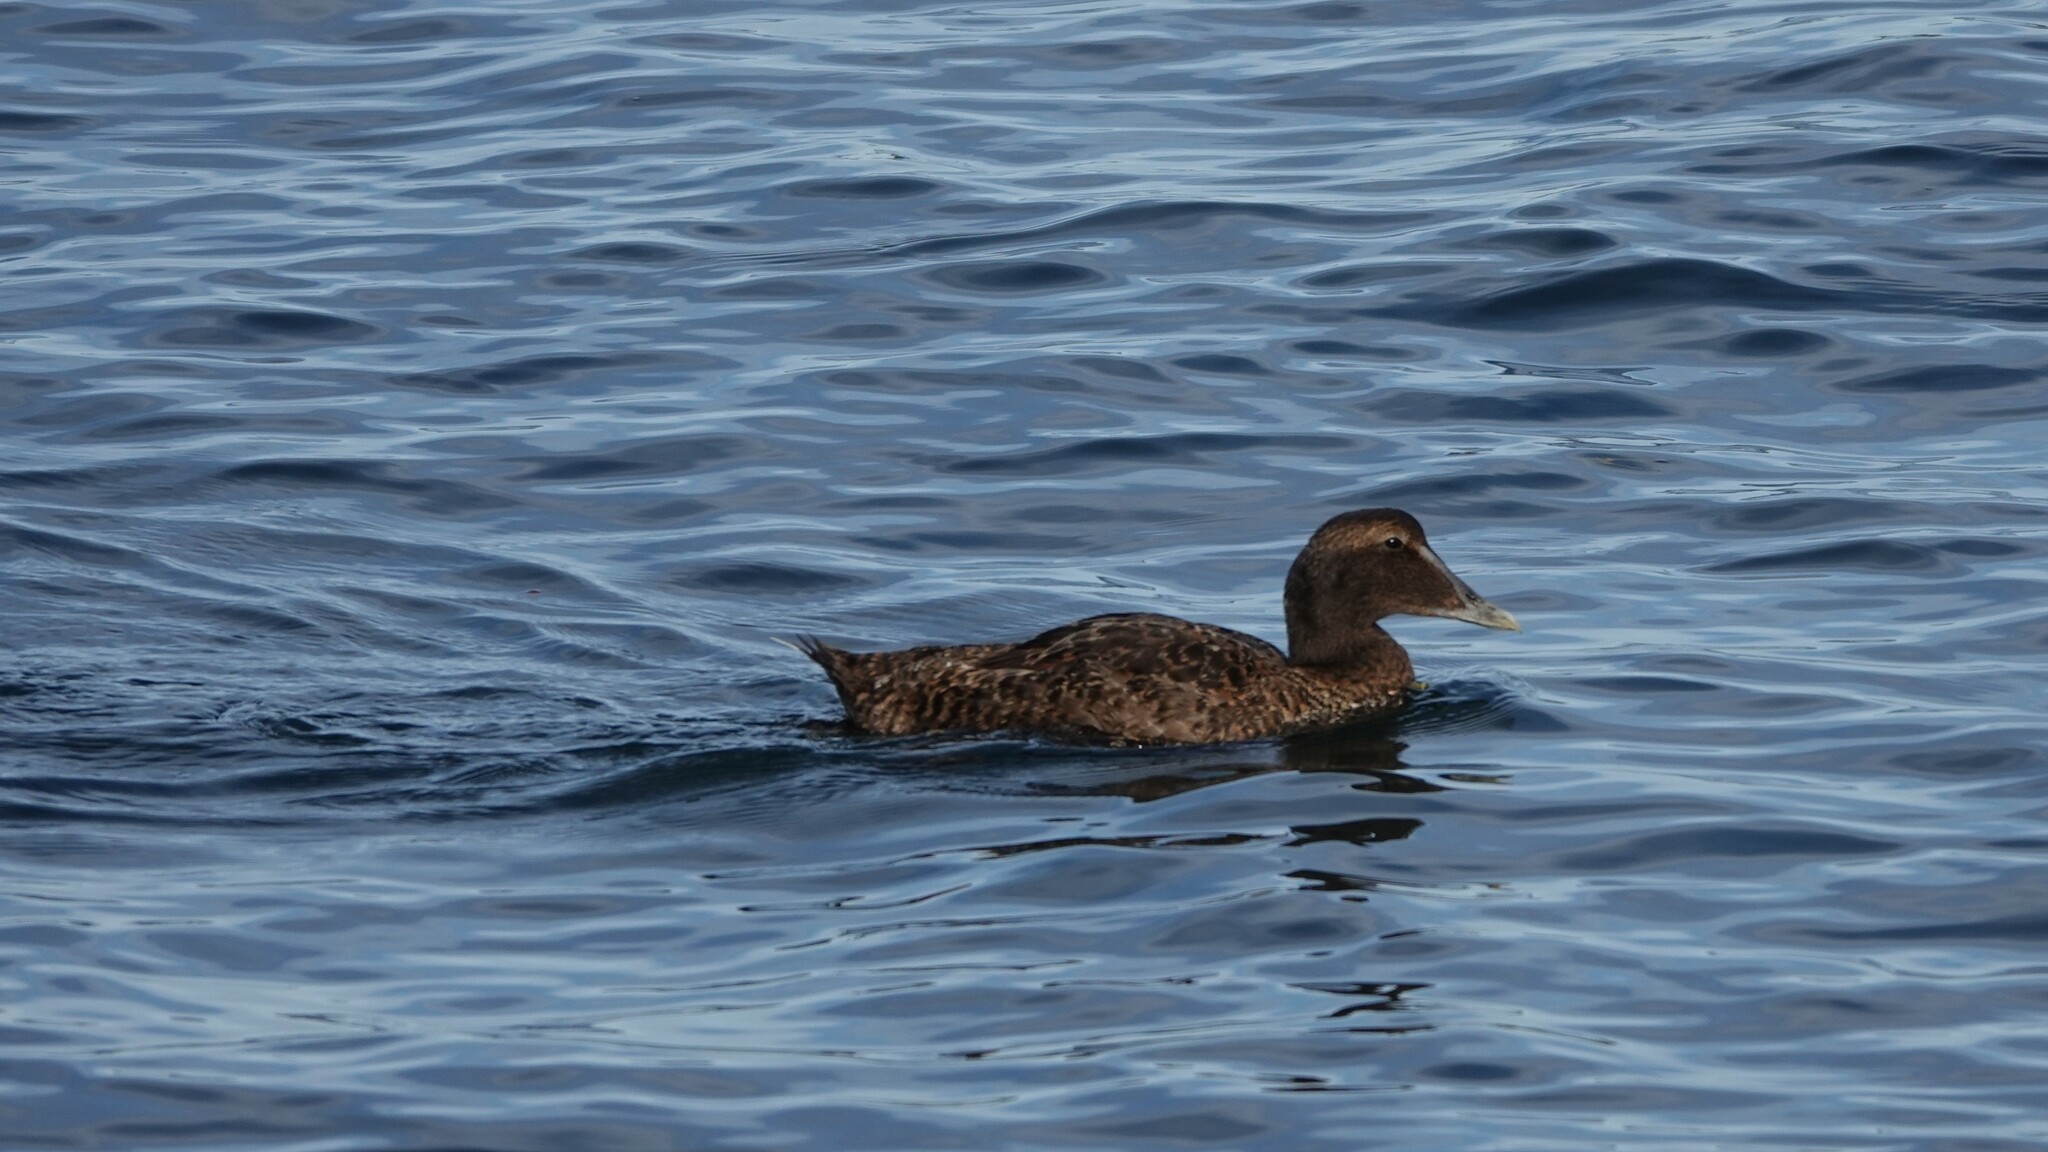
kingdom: Animalia
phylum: Chordata
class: Aves
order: Anseriformes
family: Anatidae
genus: Somateria
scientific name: Somateria mollissima
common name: Common eider
